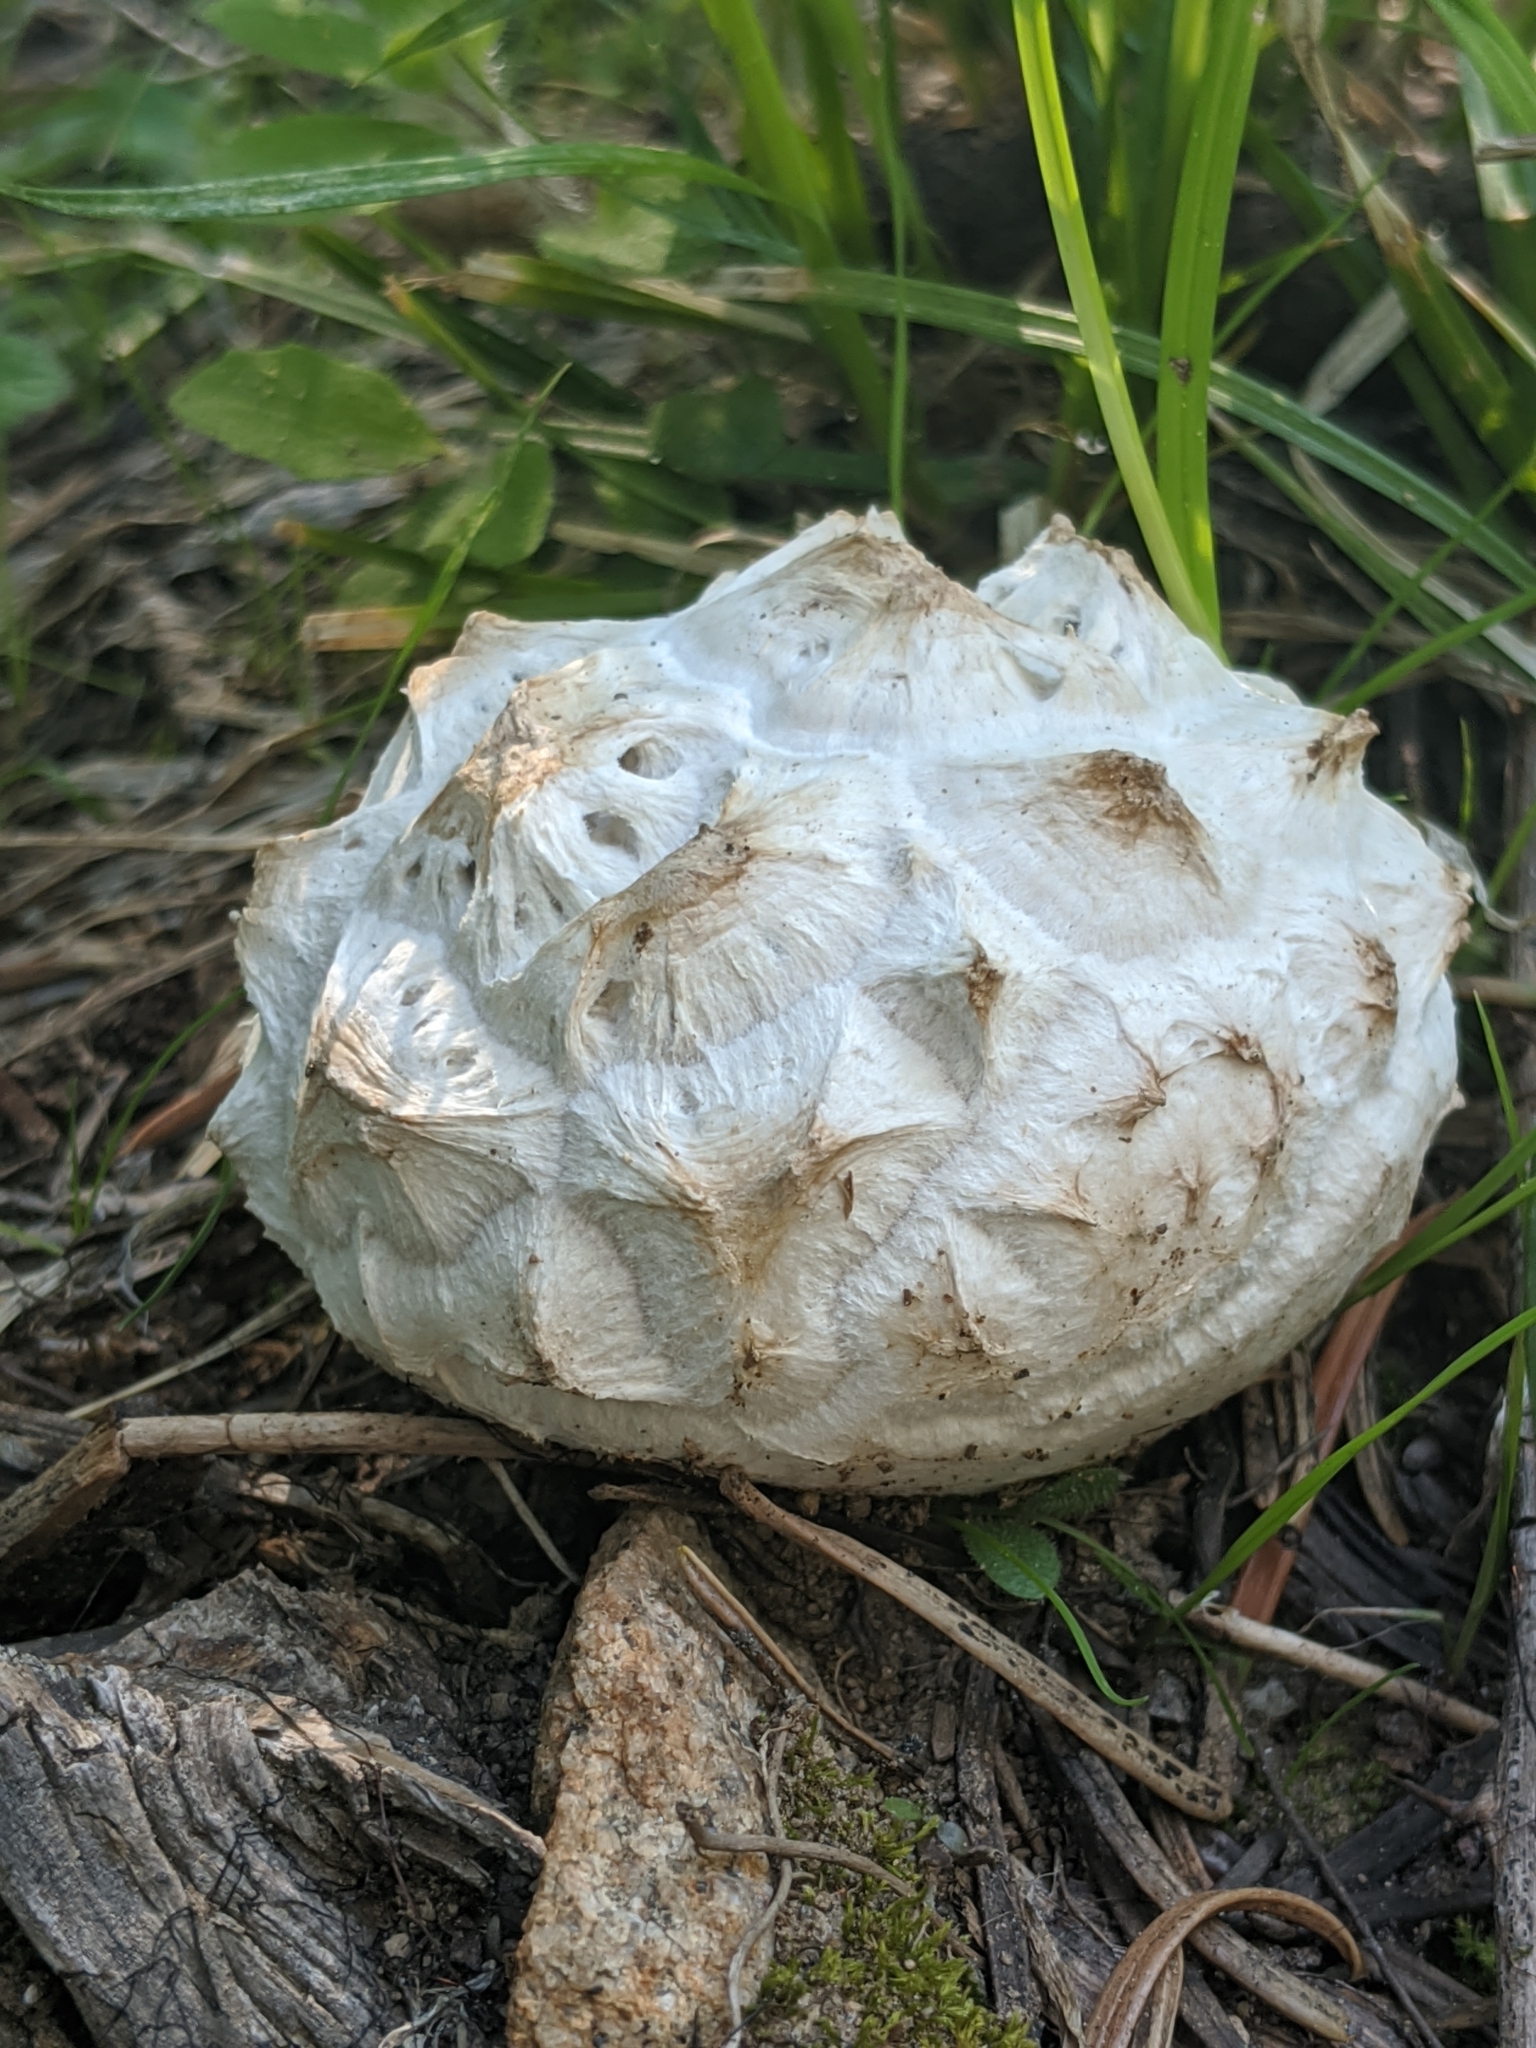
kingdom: Fungi
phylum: Basidiomycota
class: Agaricomycetes
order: Agaricales
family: Lycoperdaceae
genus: Calvatia
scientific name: Calvatia sculpta
